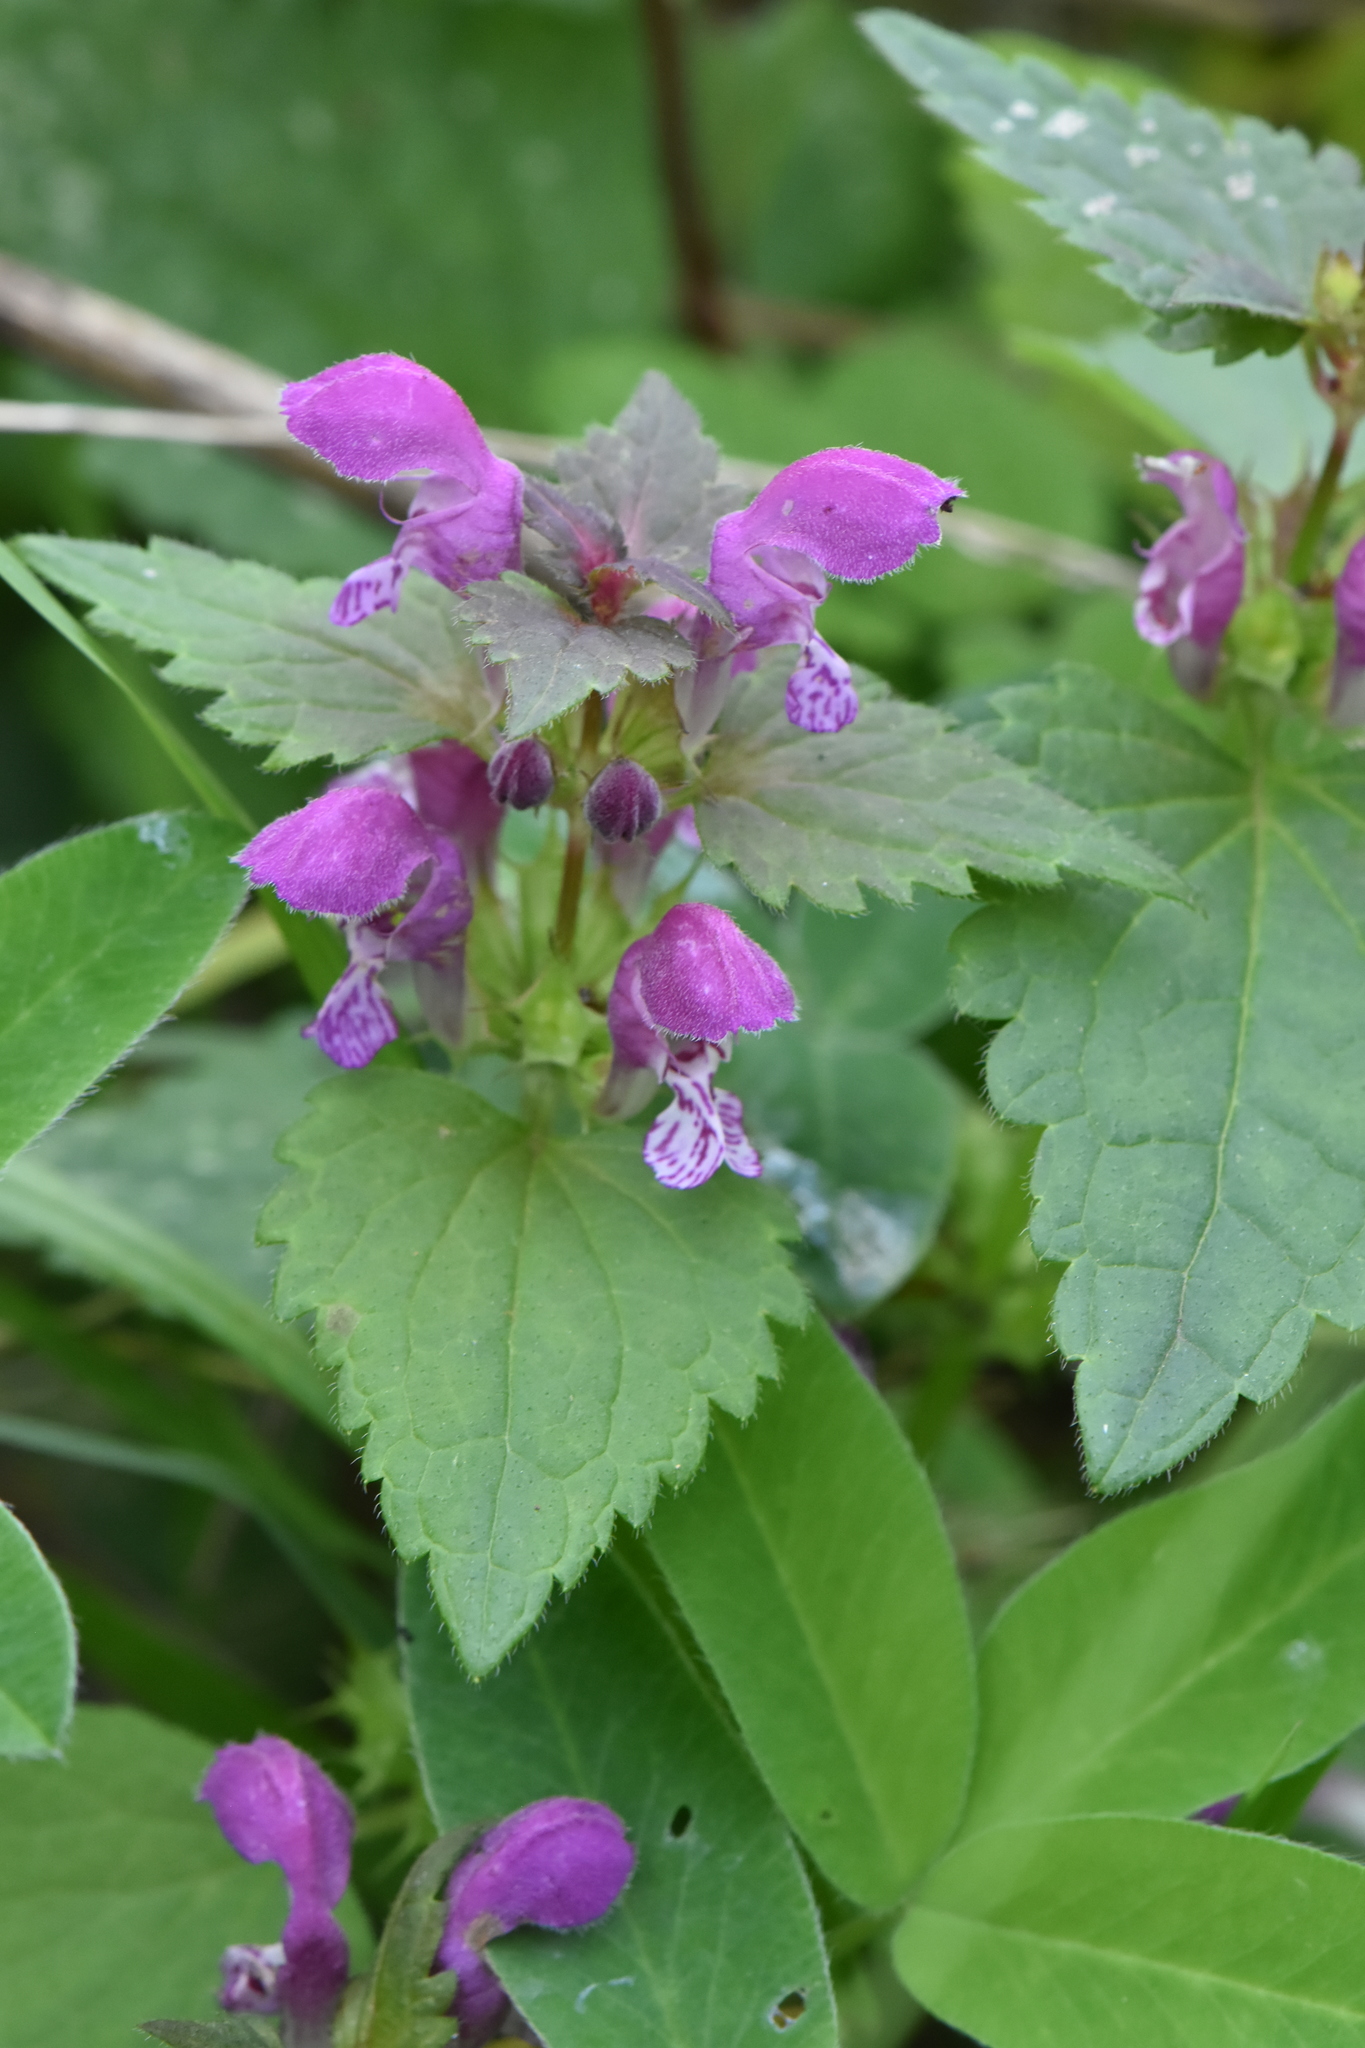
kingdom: Plantae
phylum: Tracheophyta
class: Magnoliopsida
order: Lamiales
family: Lamiaceae
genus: Lamium
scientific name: Lamium maculatum
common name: Spotted dead-nettle
